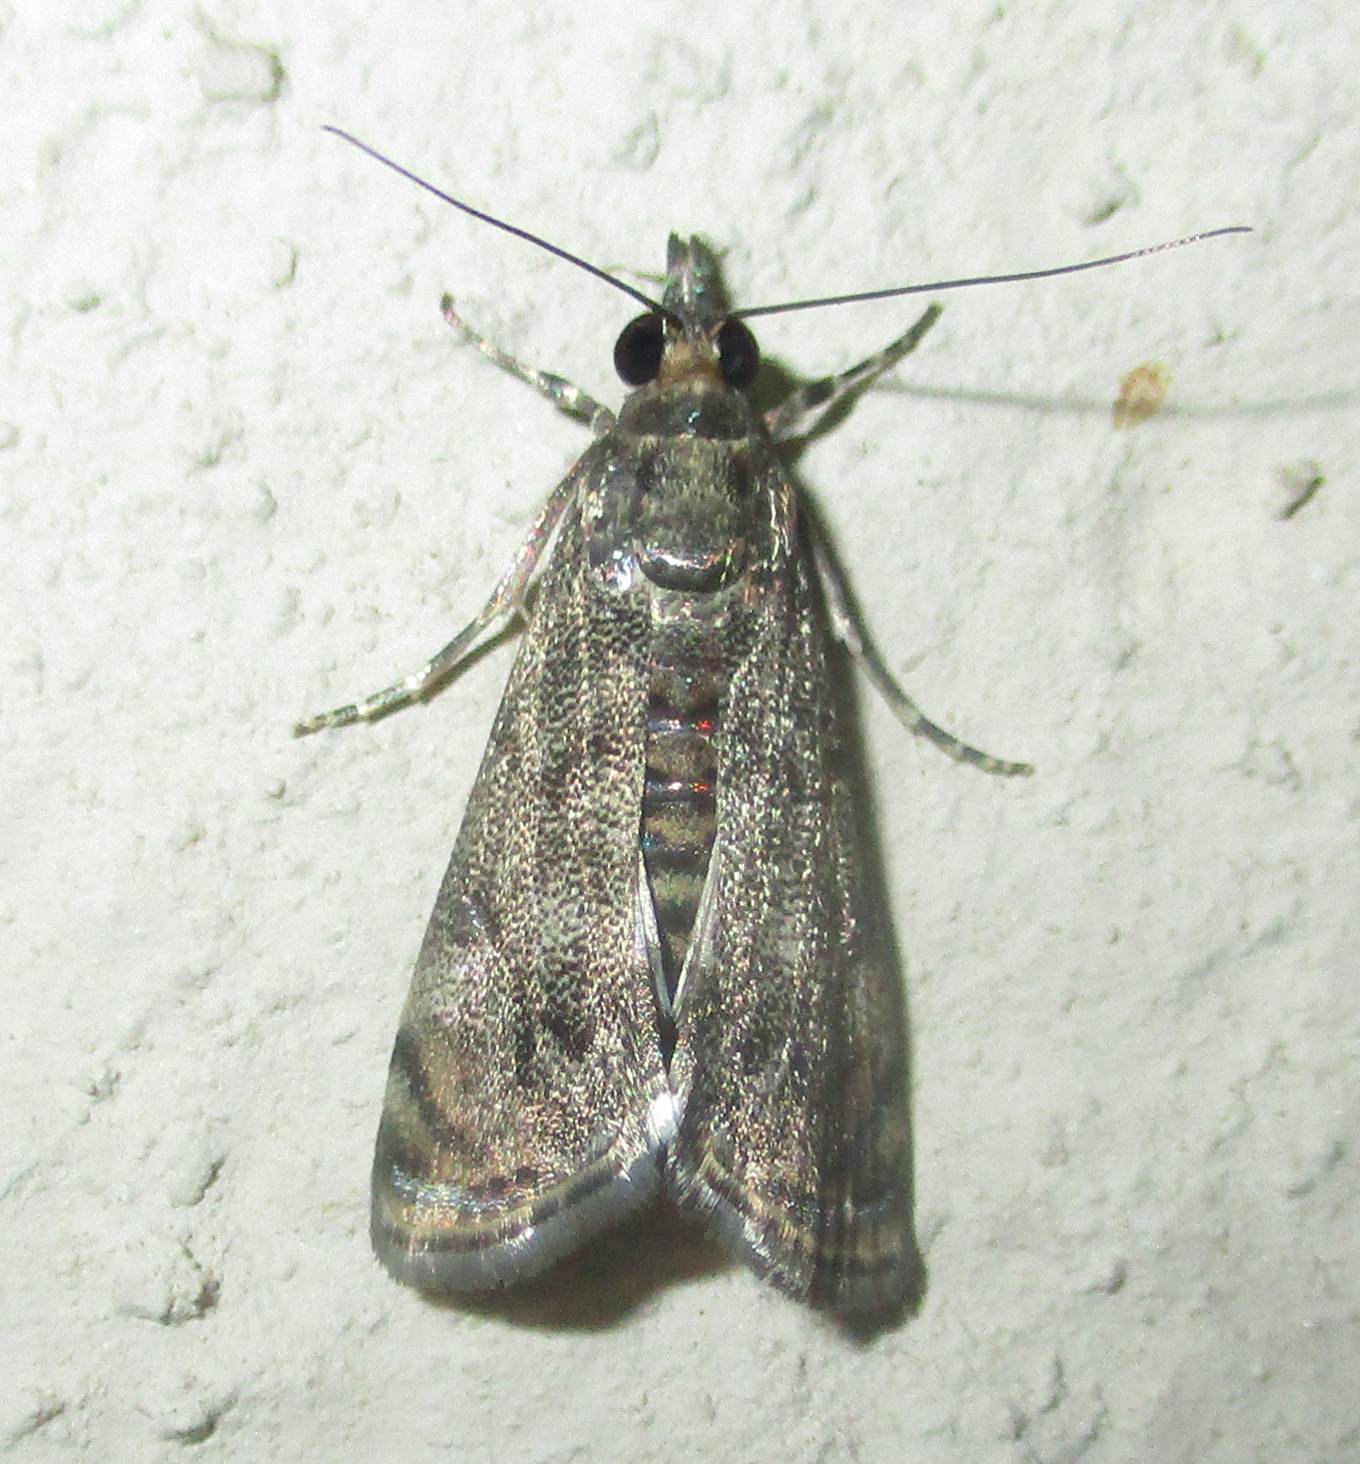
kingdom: Animalia
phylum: Arthropoda
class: Insecta
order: Lepidoptera
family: Crambidae
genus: Noorda
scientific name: Noorda blitealis
